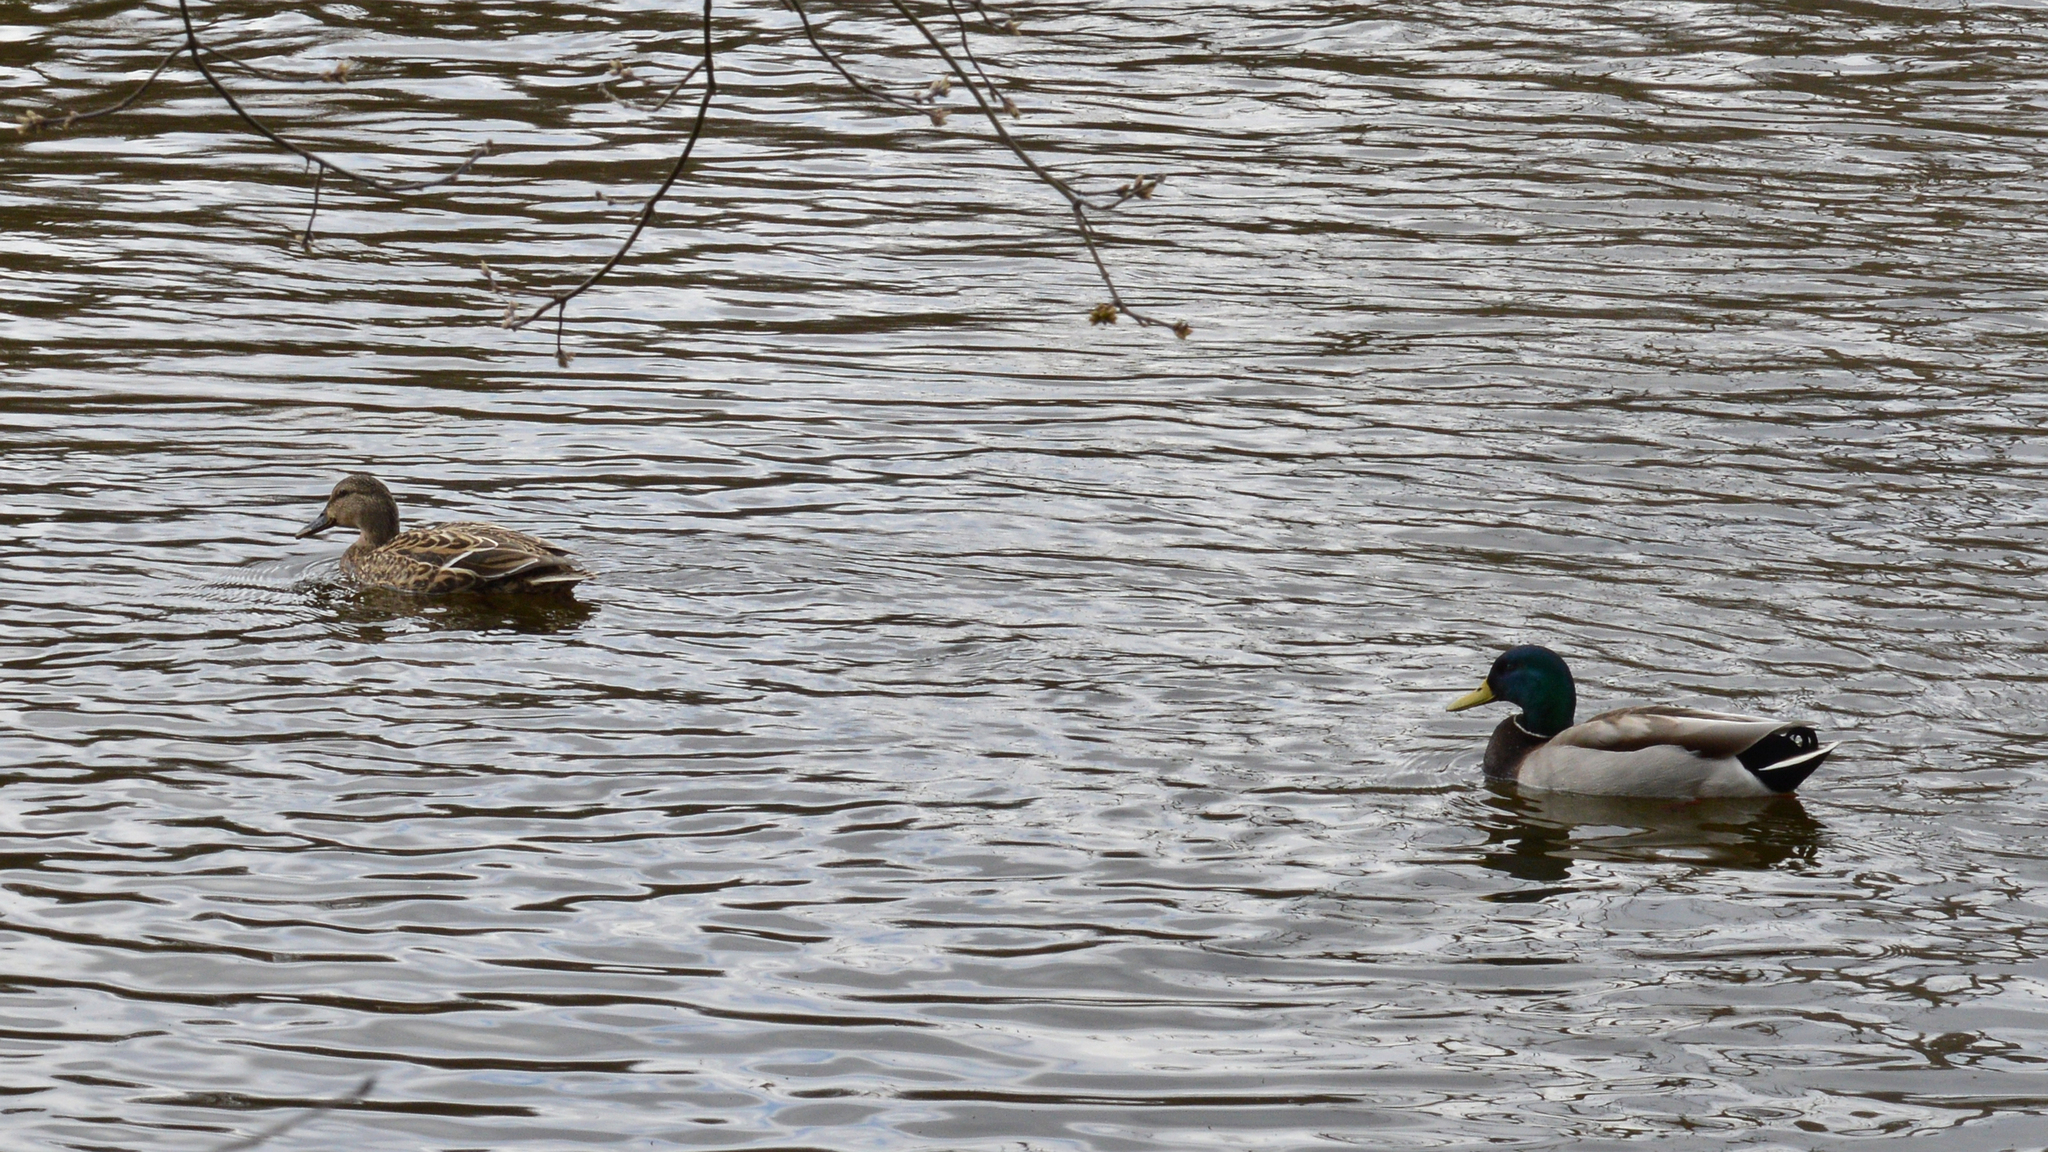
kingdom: Animalia
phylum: Chordata
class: Aves
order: Anseriformes
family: Anatidae
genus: Anas
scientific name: Anas platyrhynchos
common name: Mallard
